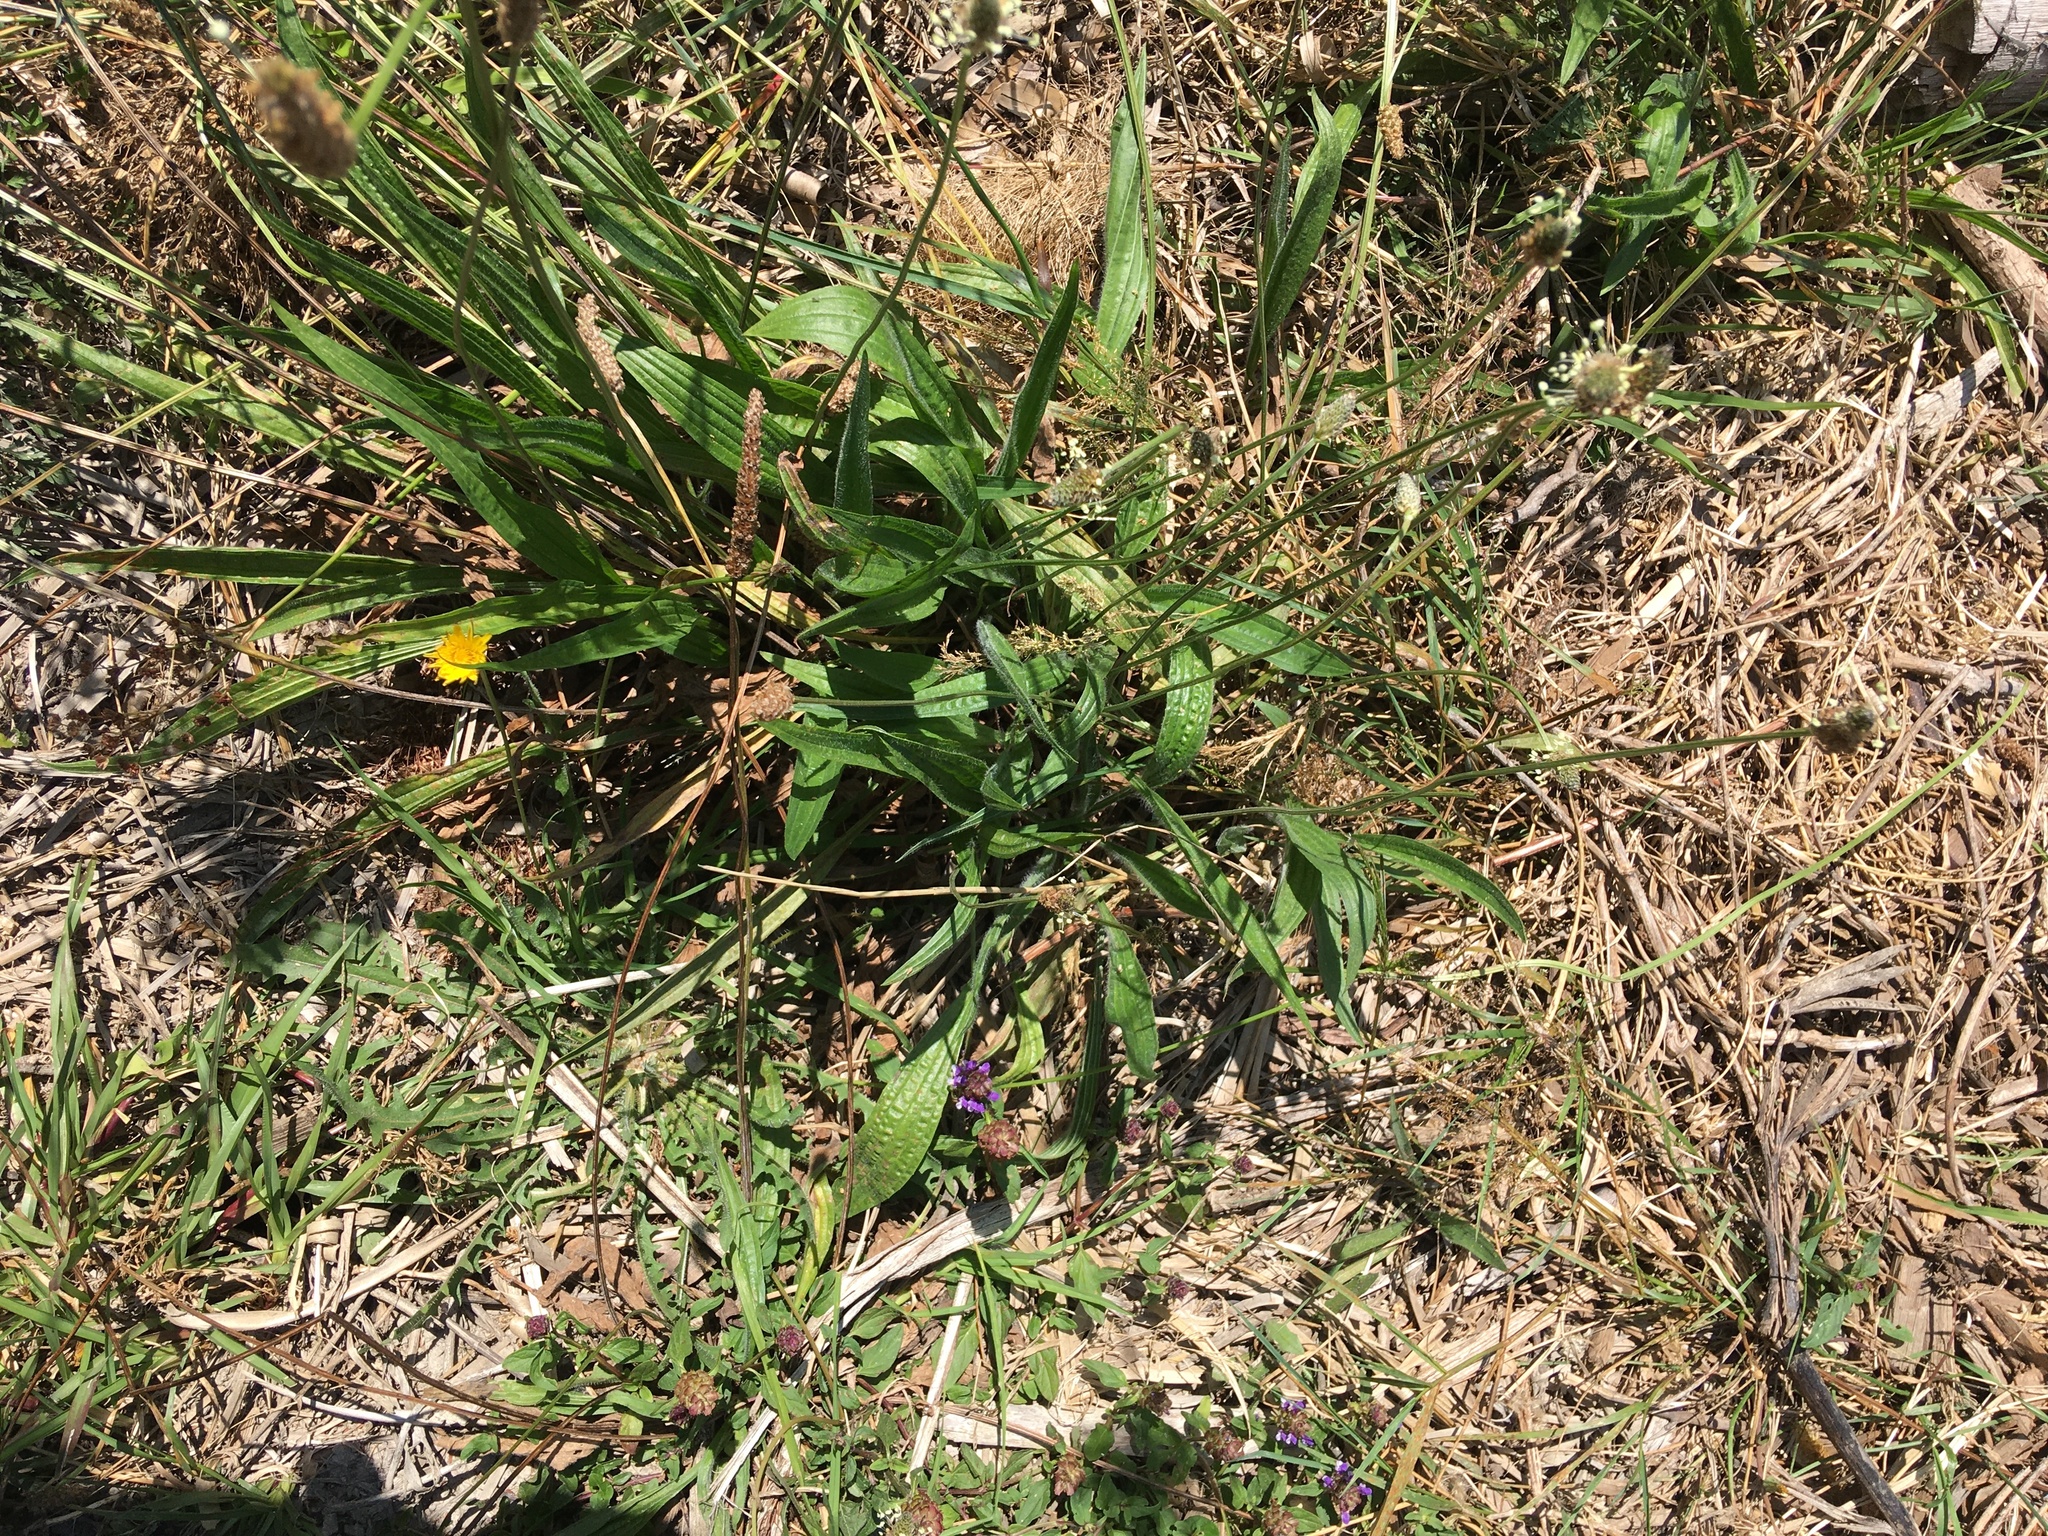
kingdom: Plantae
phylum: Tracheophyta
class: Magnoliopsida
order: Lamiales
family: Plantaginaceae
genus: Plantago
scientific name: Plantago lanceolata
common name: Ribwort plantain
